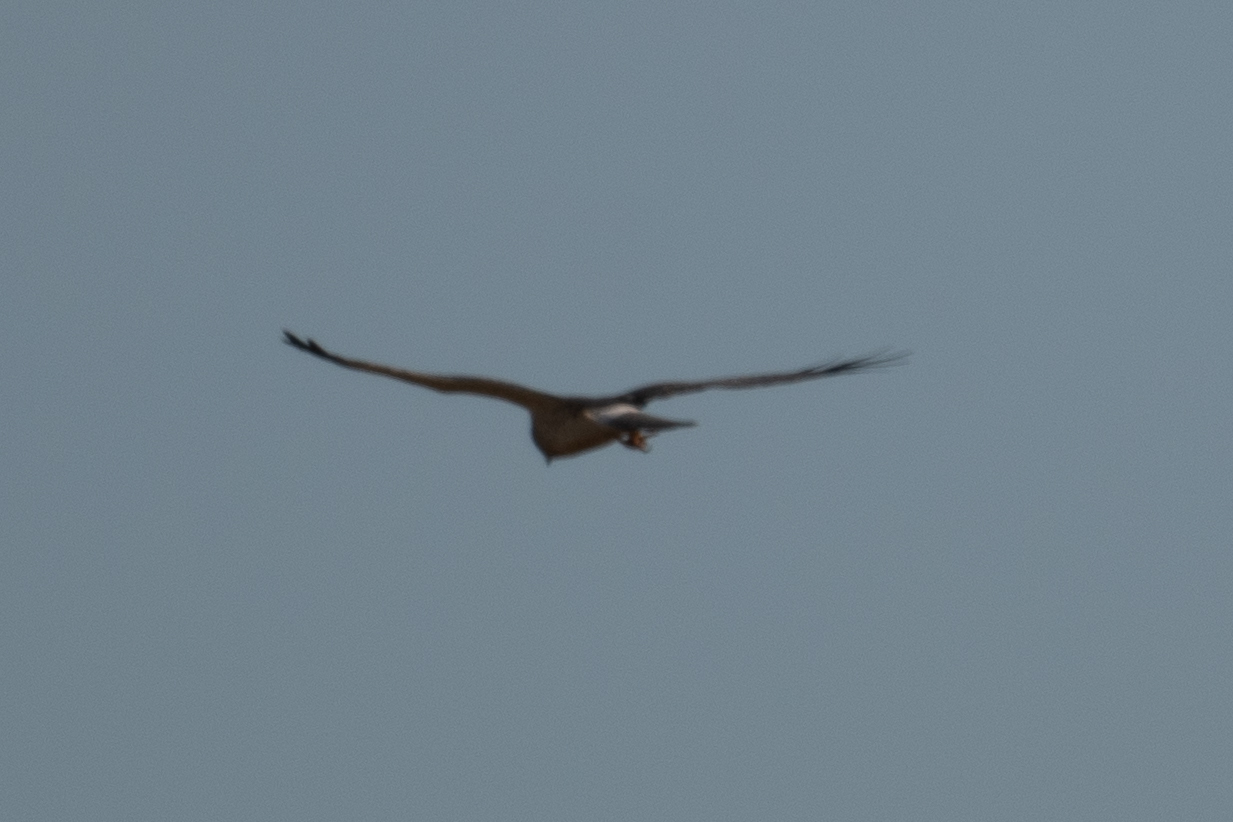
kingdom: Animalia
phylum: Chordata
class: Aves
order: Accipitriformes
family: Accipitridae
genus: Circus
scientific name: Circus cyaneus
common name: Hen harrier
